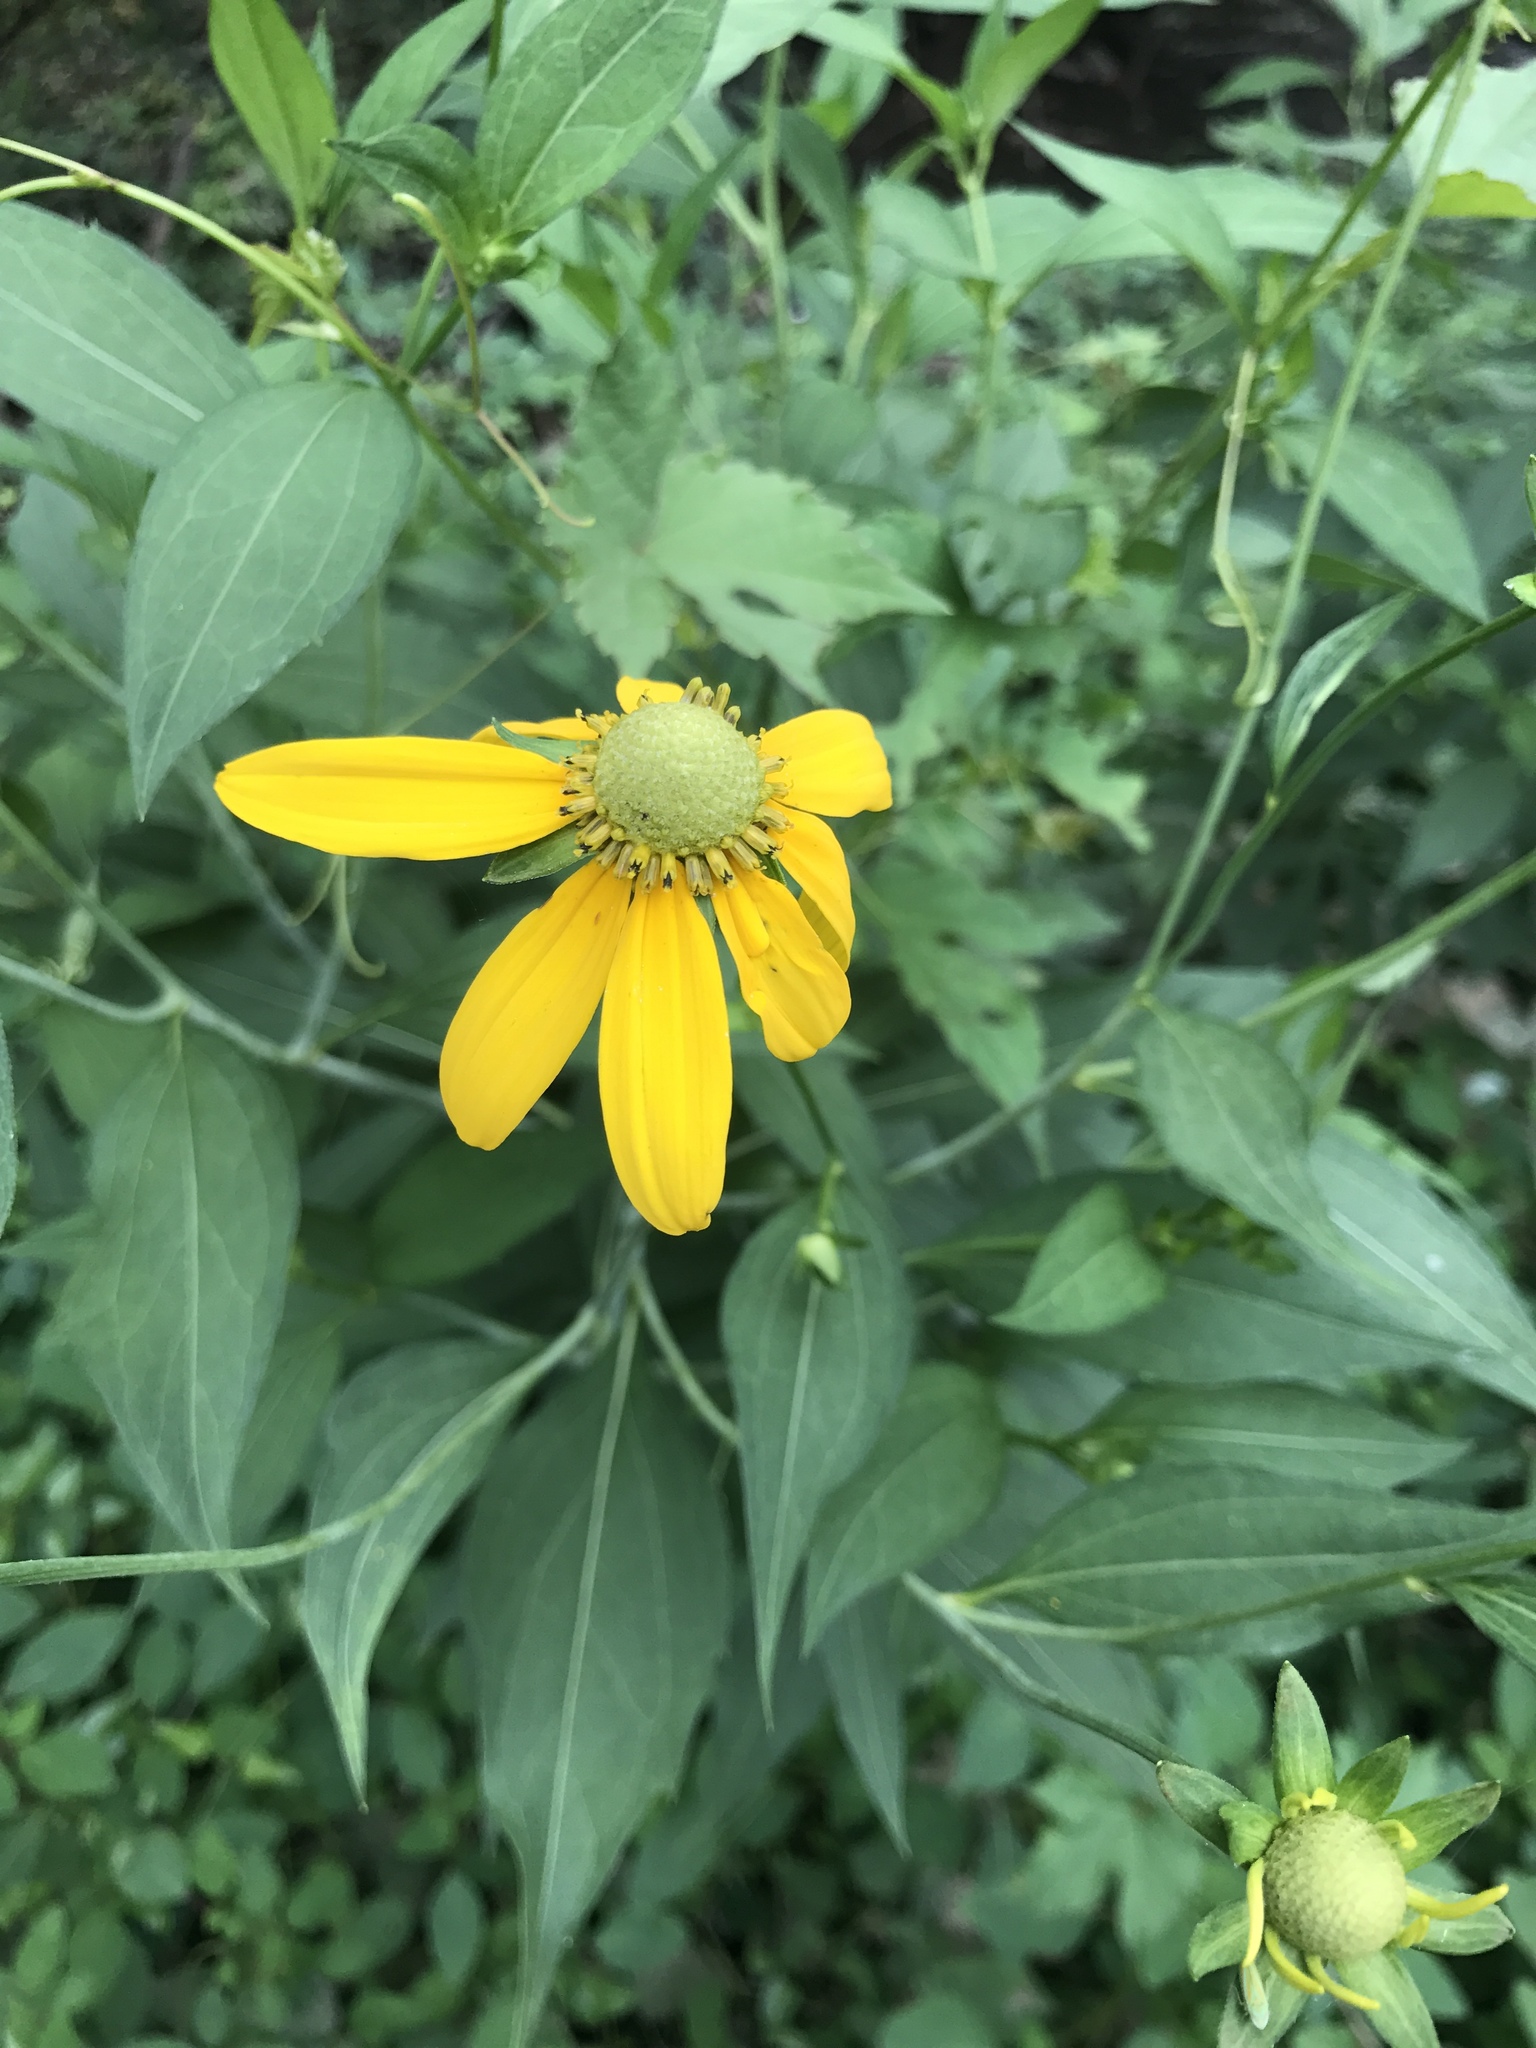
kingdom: Plantae
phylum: Tracheophyta
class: Magnoliopsida
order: Asterales
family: Asteraceae
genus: Rudbeckia
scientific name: Rudbeckia laciniata
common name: Coneflower
